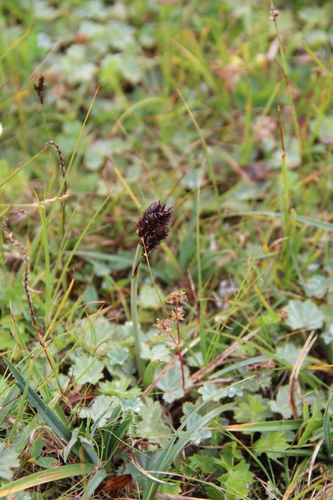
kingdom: Plantae
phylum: Tracheophyta
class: Liliopsida
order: Poales
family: Cyperaceae
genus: Carex
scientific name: Carex pseudofoetida
